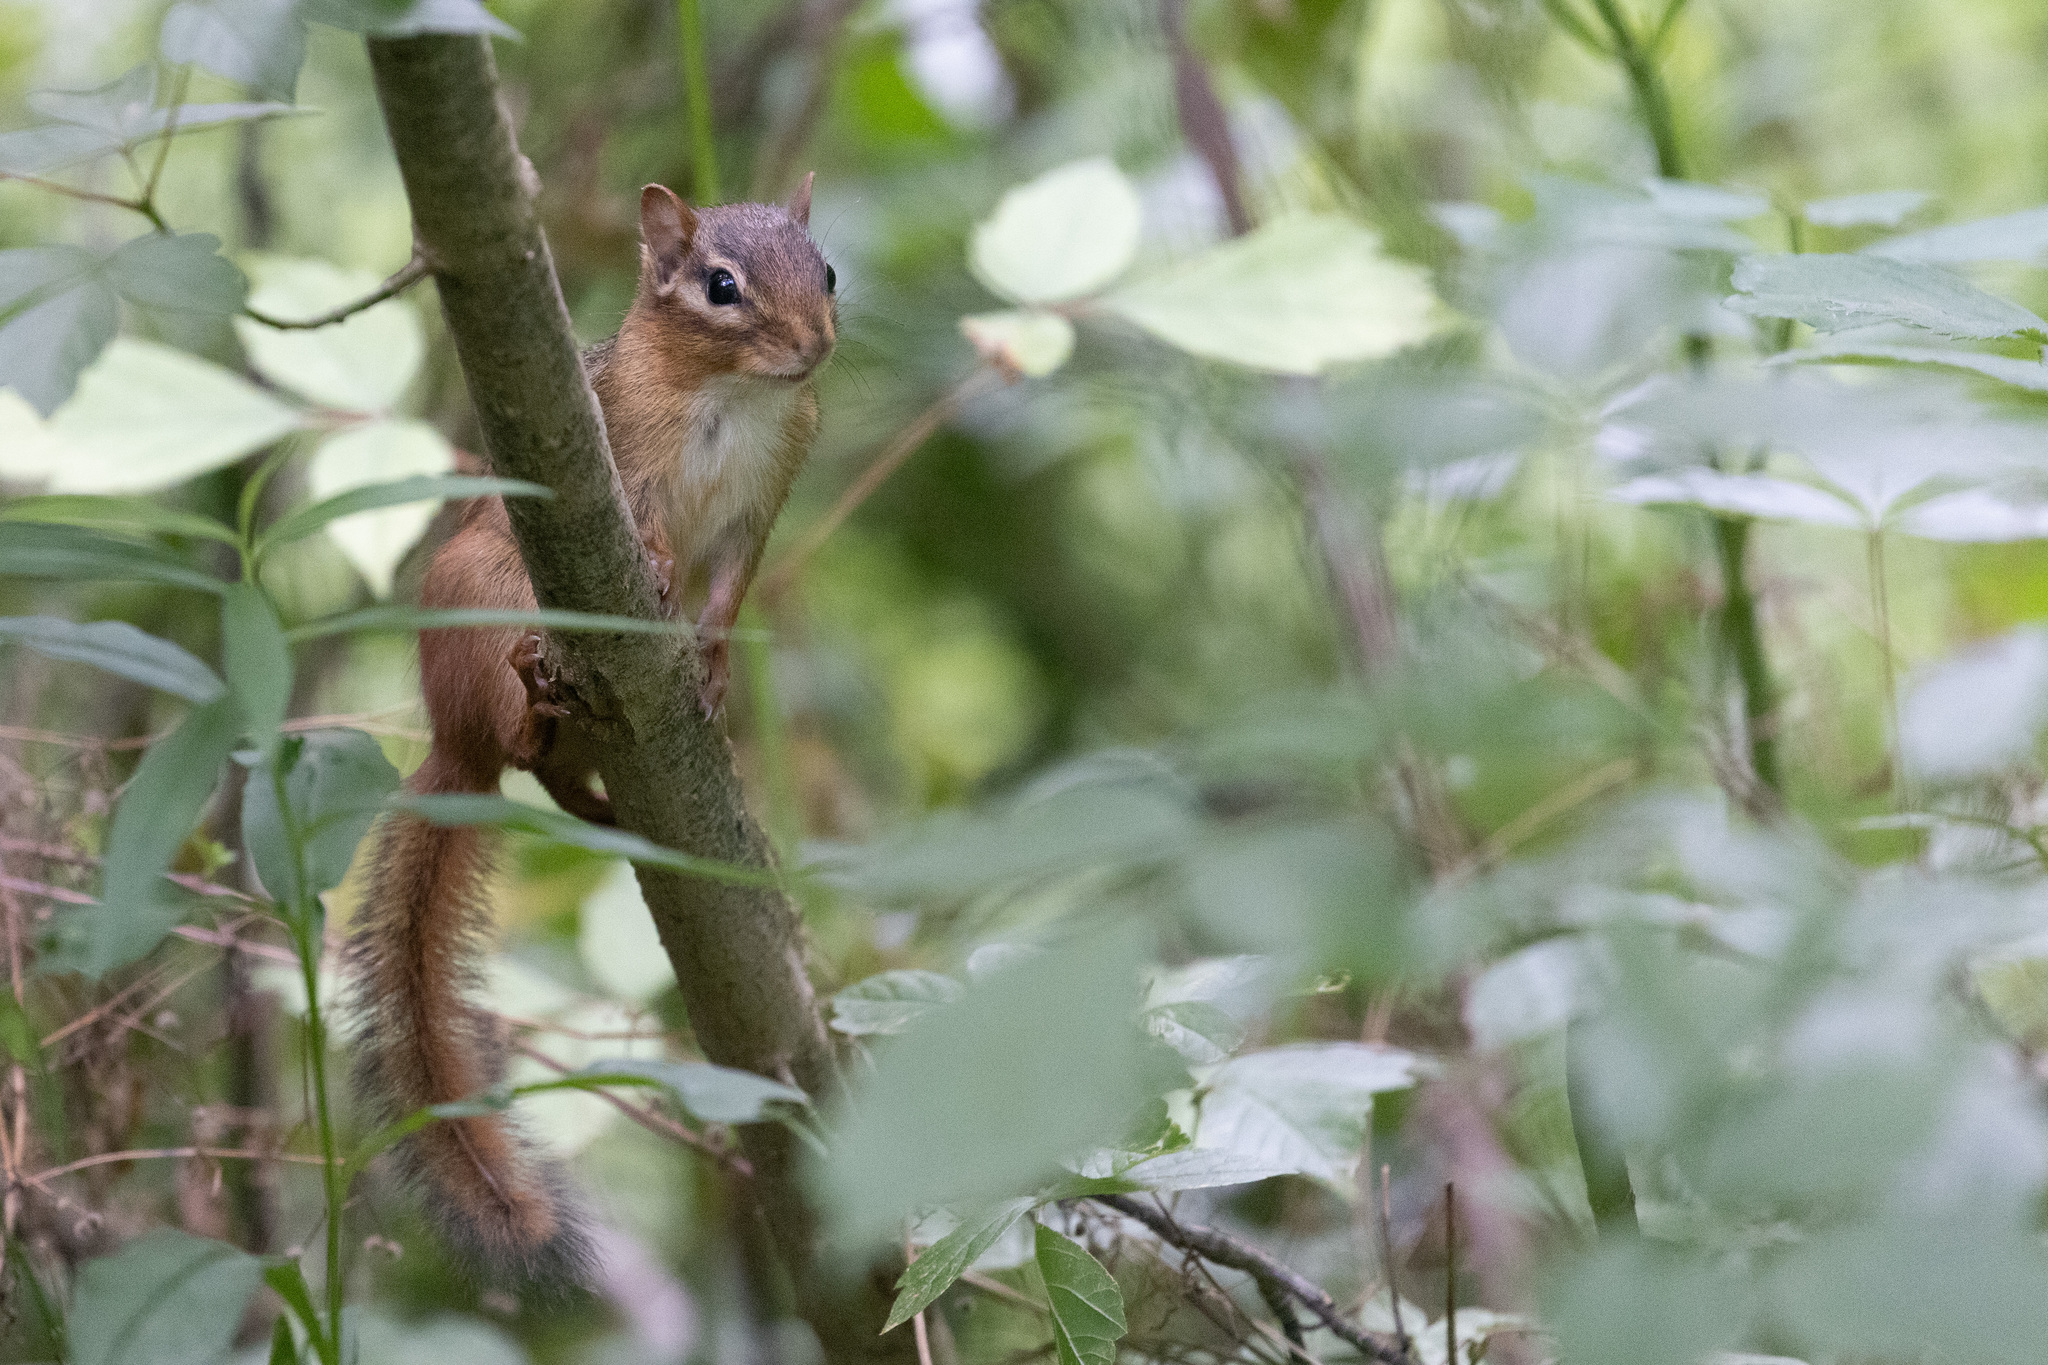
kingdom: Animalia
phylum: Chordata
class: Mammalia
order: Rodentia
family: Sciuridae
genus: Tamias
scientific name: Tamias striatus
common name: Eastern chipmunk
